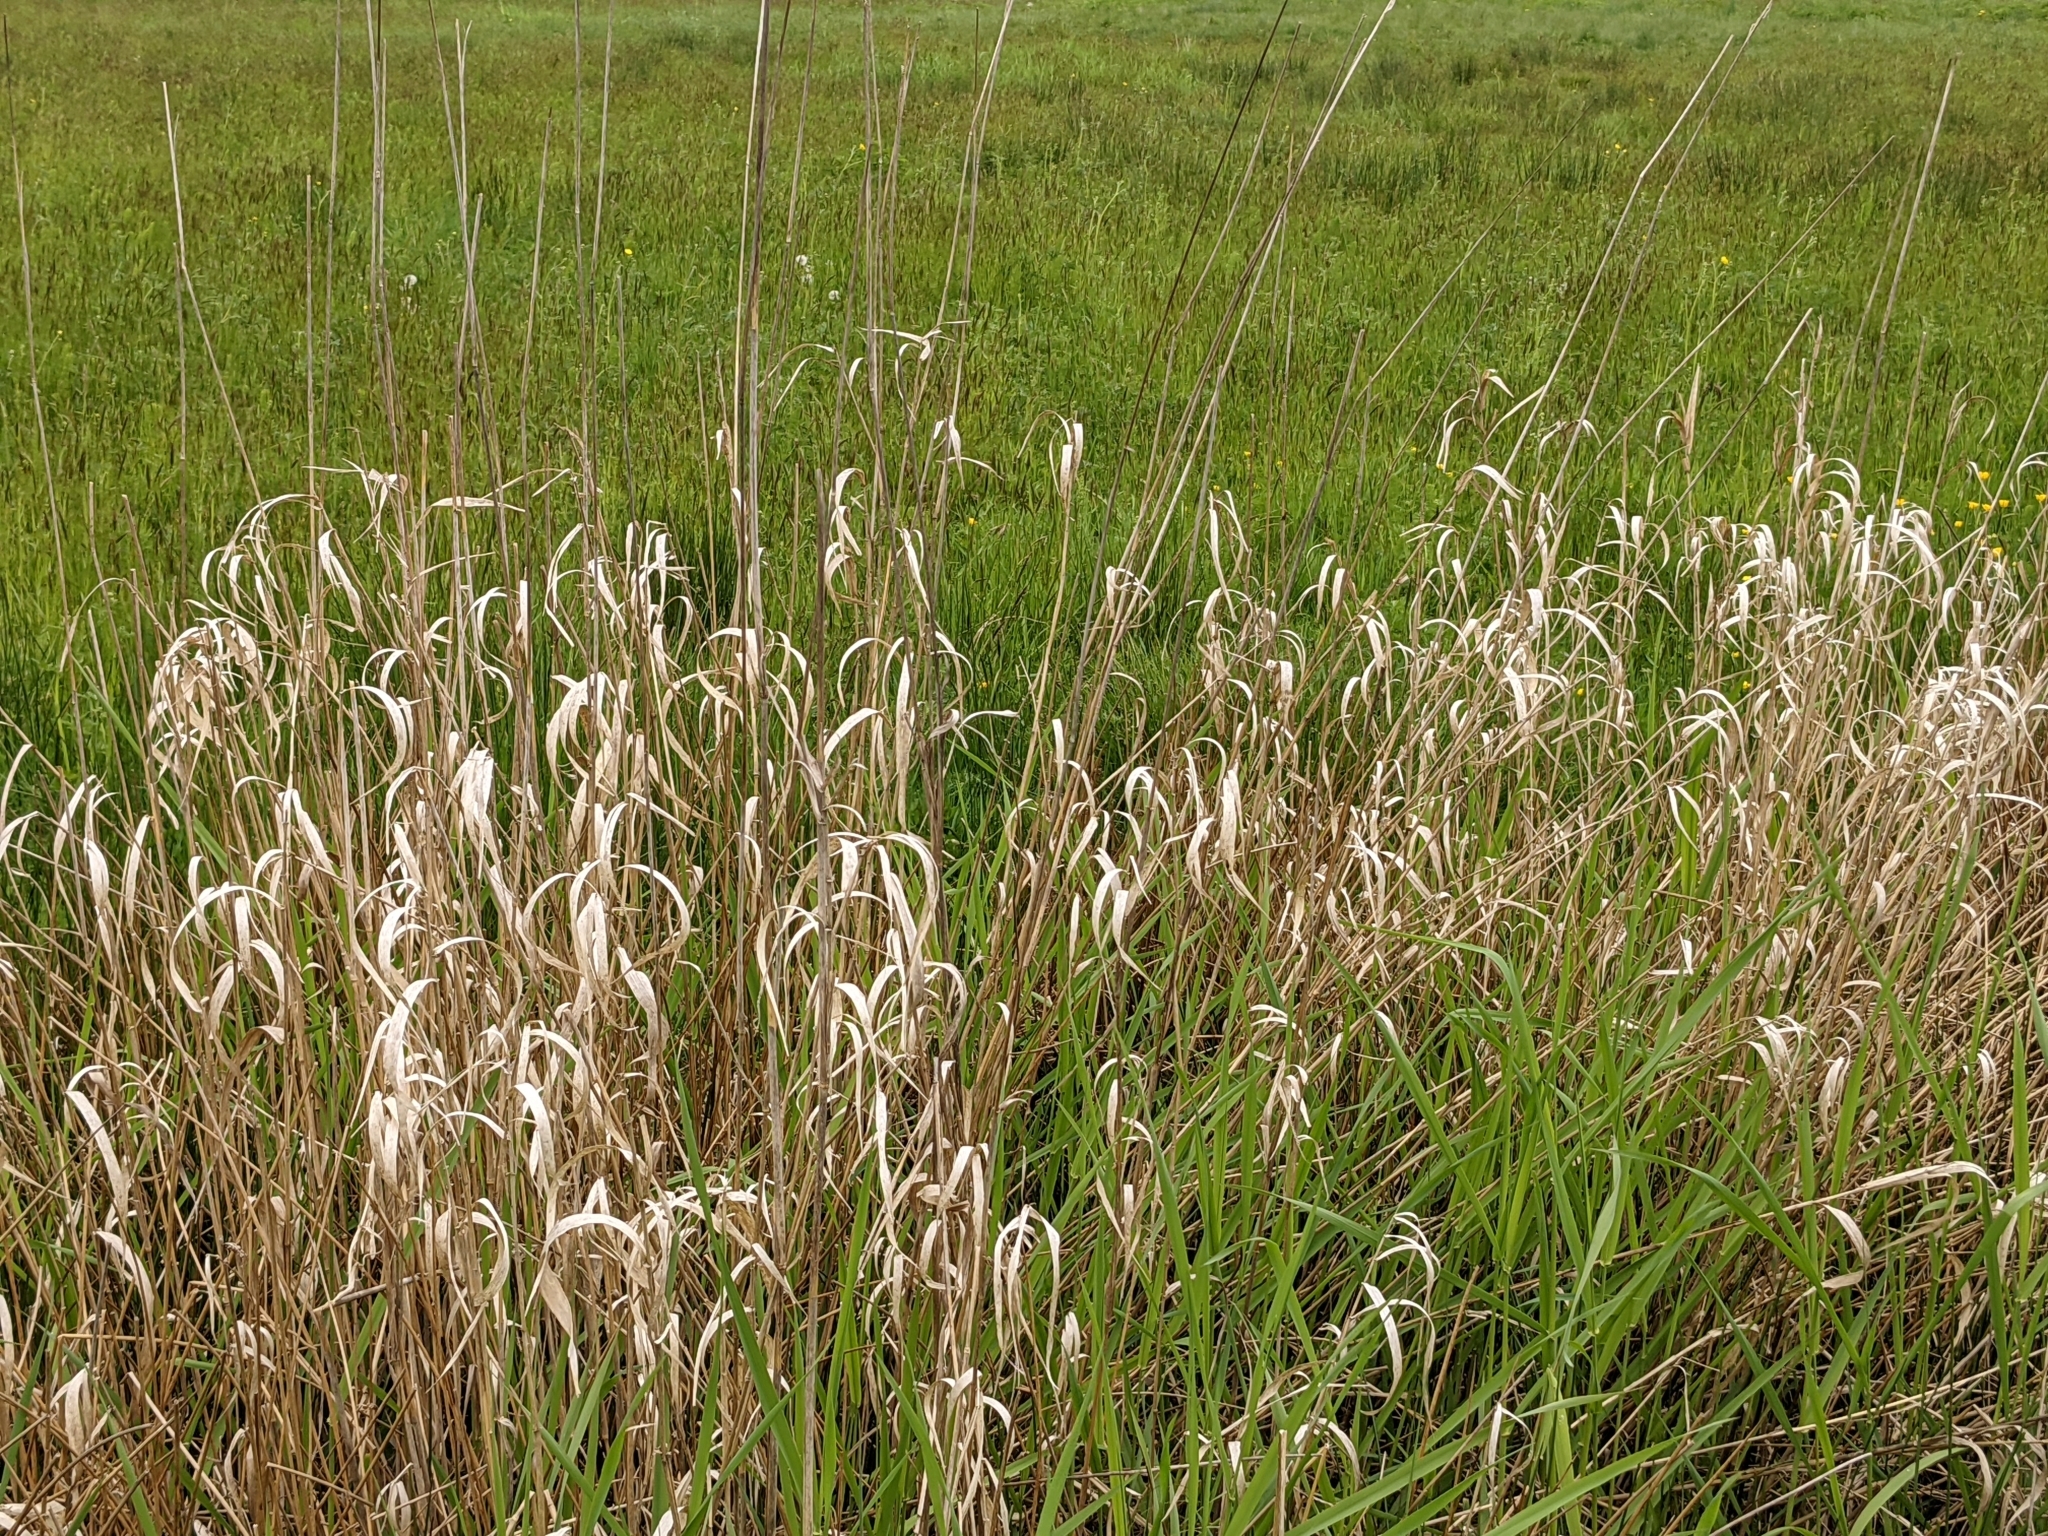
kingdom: Plantae
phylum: Tracheophyta
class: Liliopsida
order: Poales
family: Poaceae
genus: Phalaris
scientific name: Phalaris arundinacea
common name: Reed canary-grass
